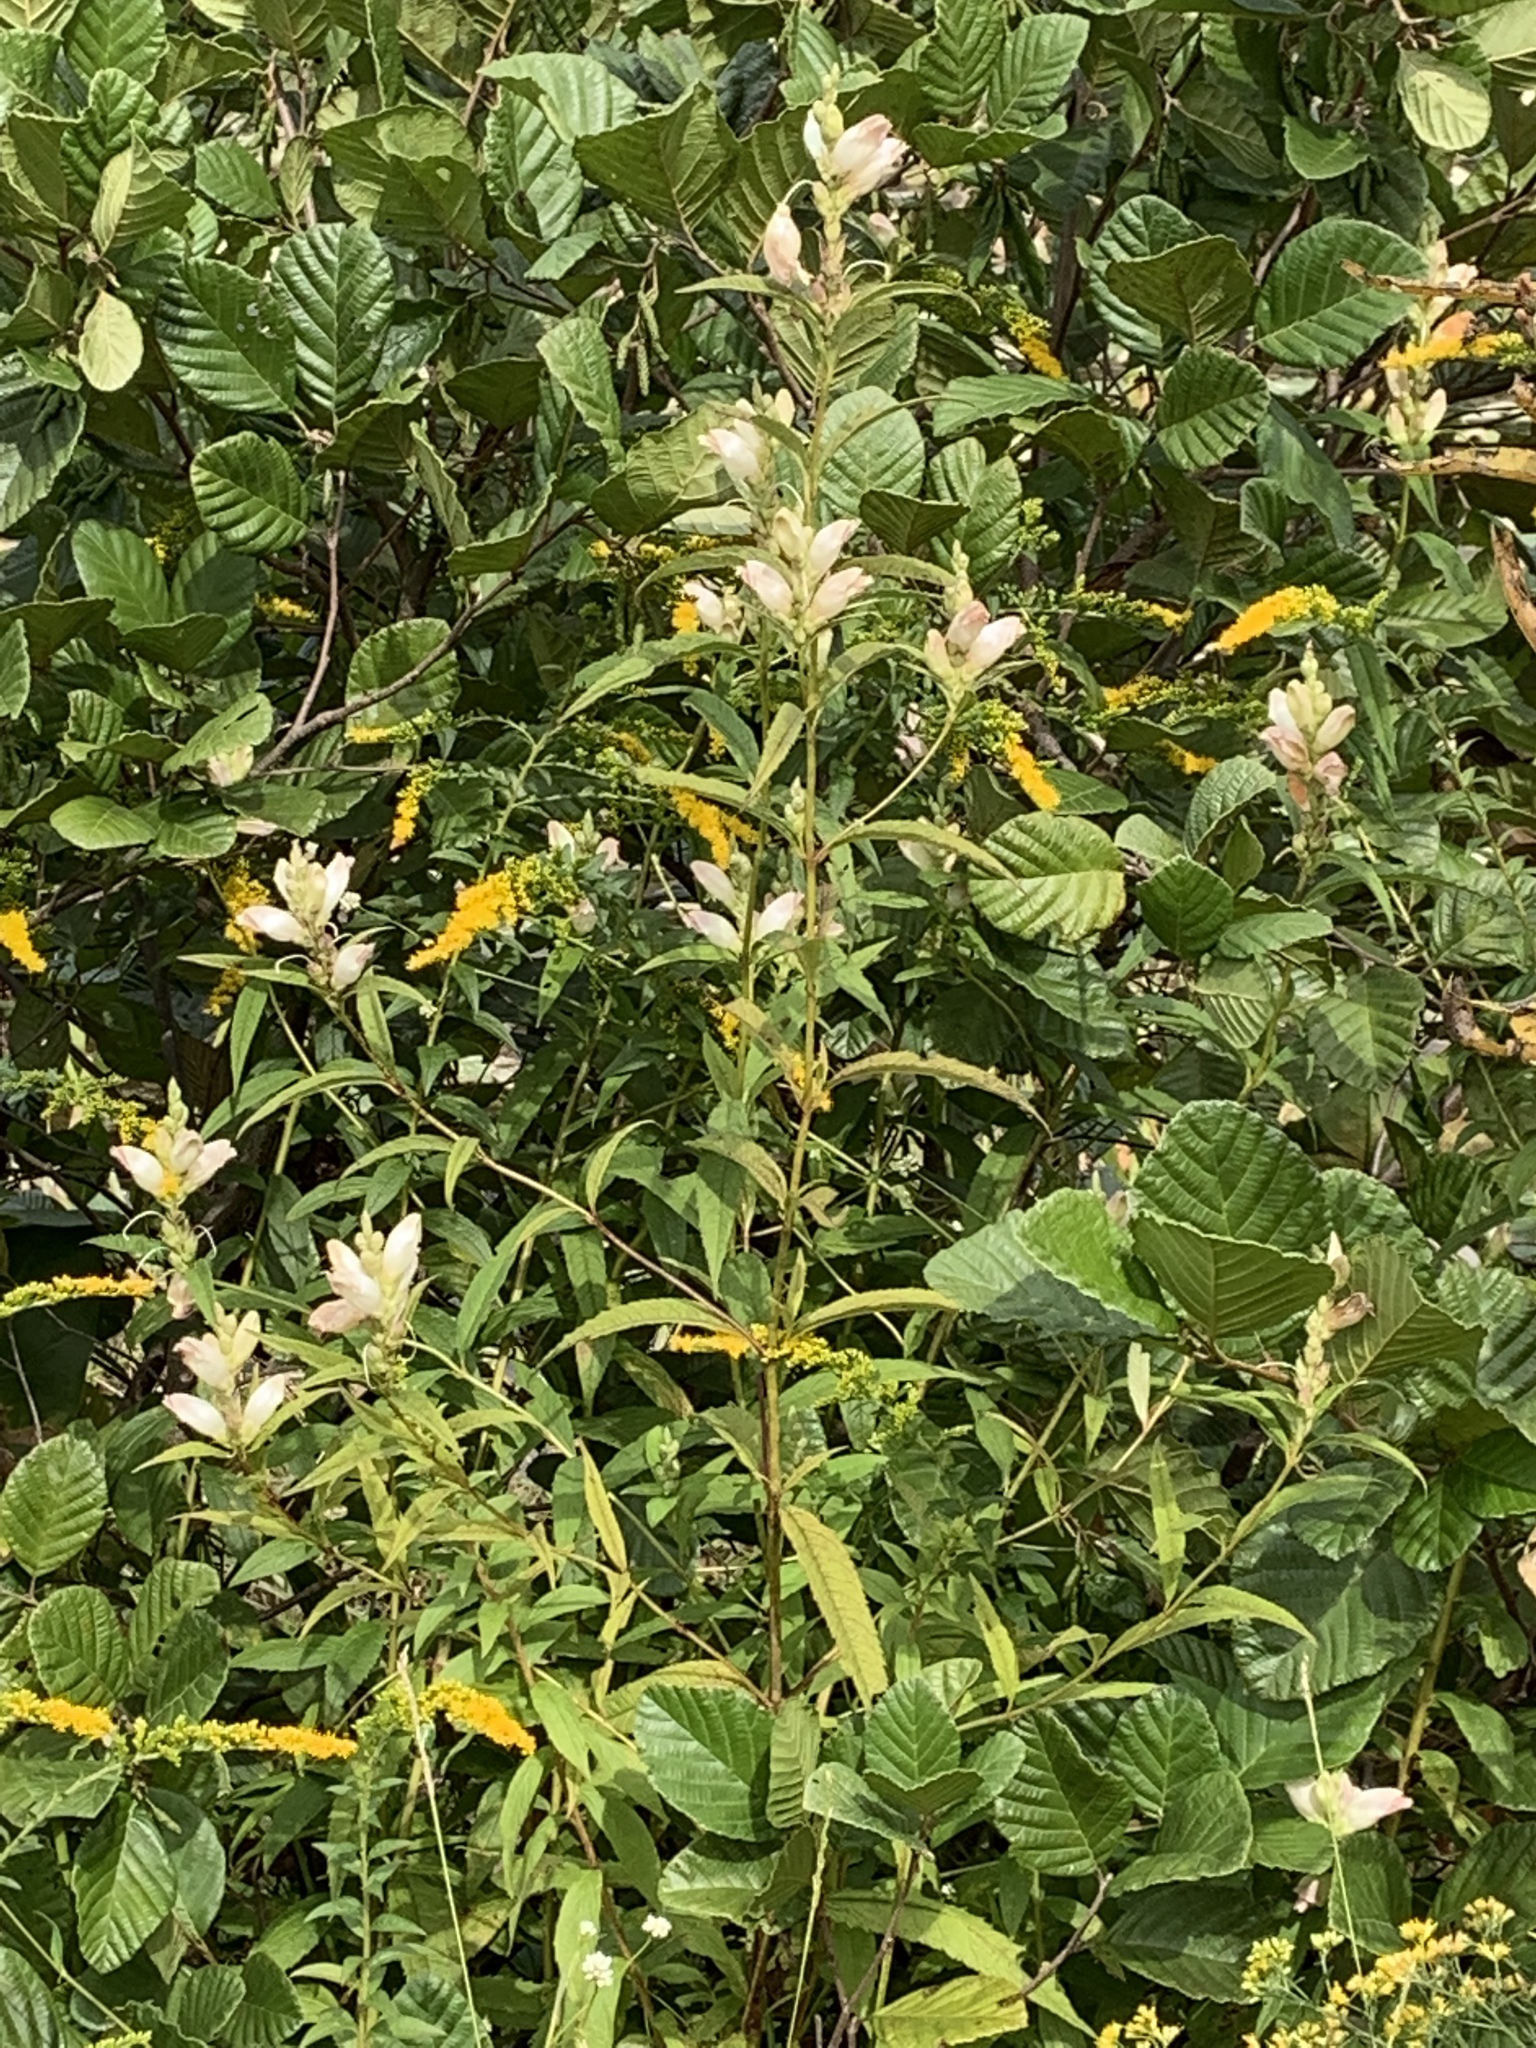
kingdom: Plantae
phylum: Tracheophyta
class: Magnoliopsida
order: Lamiales
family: Plantaginaceae
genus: Chelone
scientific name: Chelone glabra
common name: Snakehead
